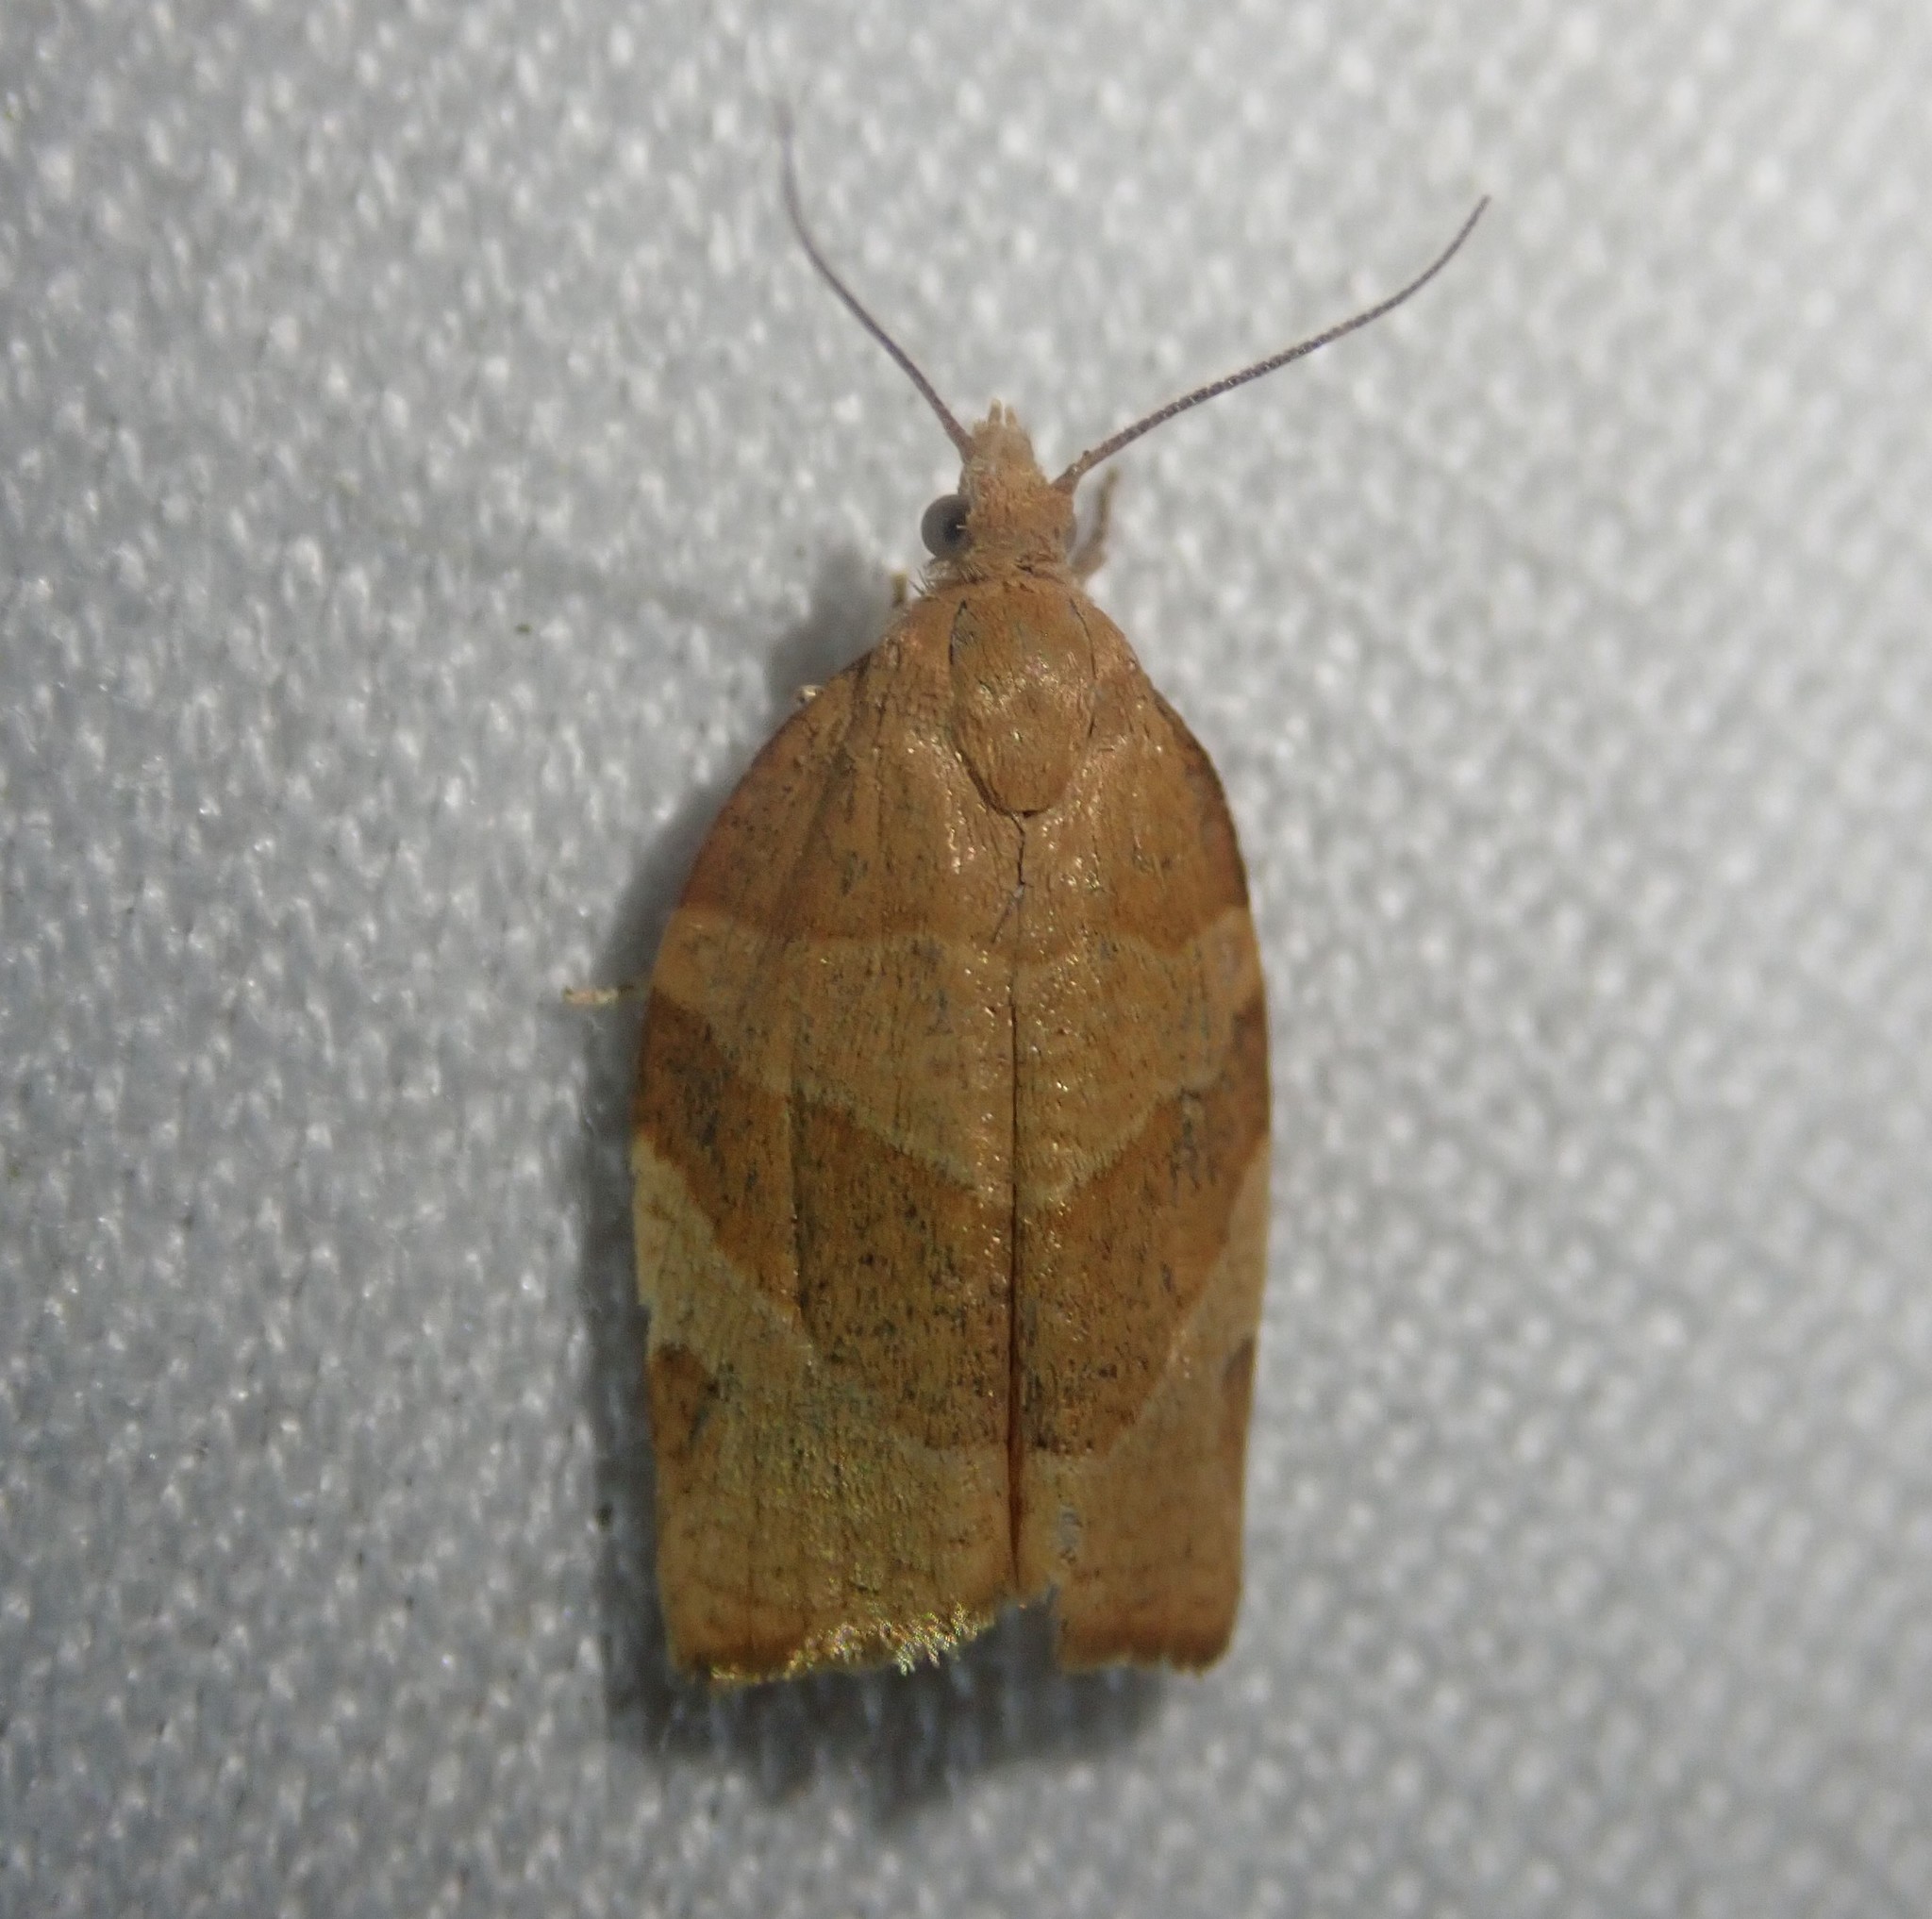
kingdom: Animalia
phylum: Arthropoda
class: Insecta
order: Lepidoptera
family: Tortricidae
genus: Pandemis
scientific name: Pandemis cerasana
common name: Barred fruit-tree tortrix
